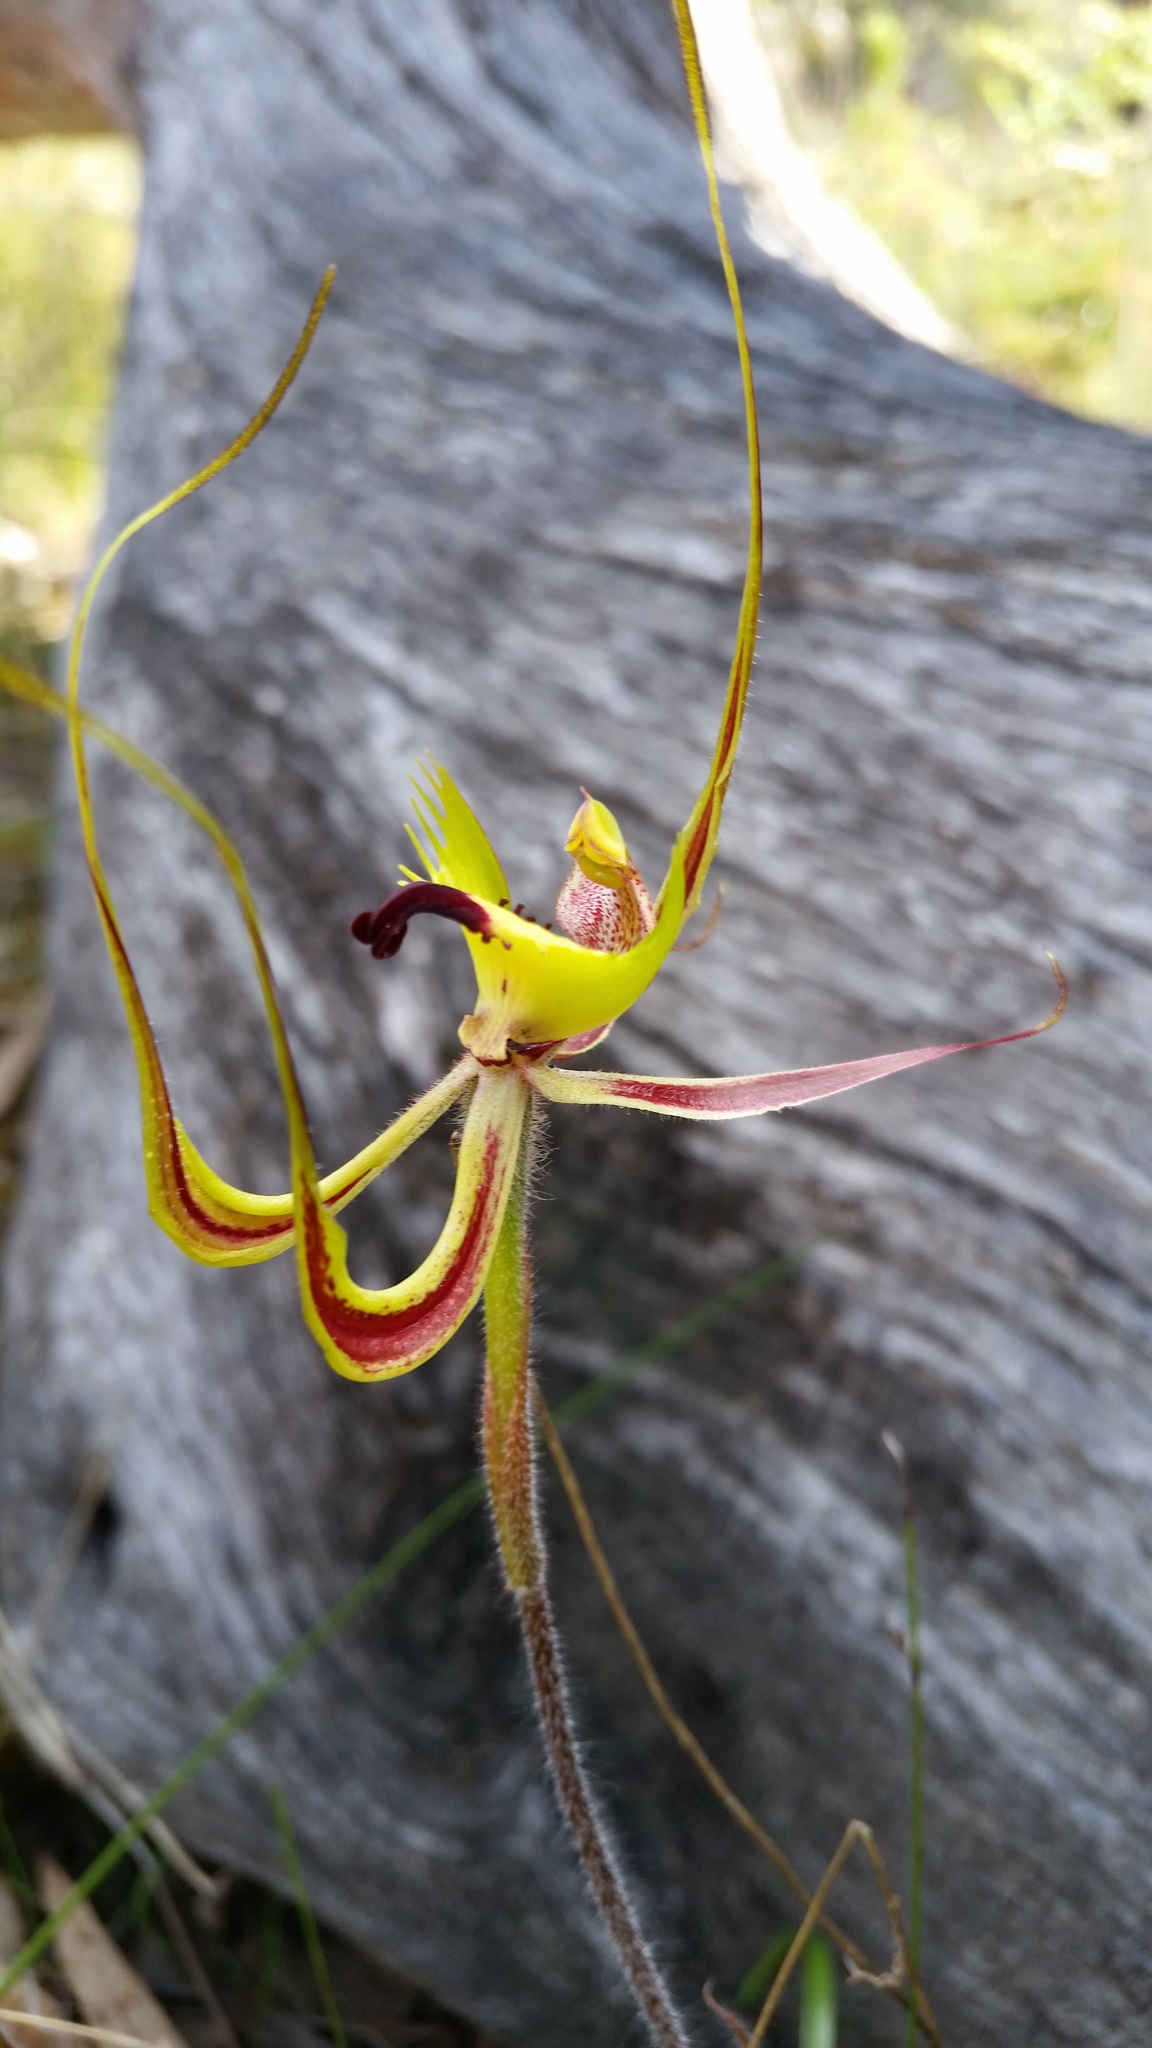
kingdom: Plantae
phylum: Tracheophyta
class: Liliopsida
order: Asparagales
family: Orchidaceae
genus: Caladenia
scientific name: Caladenia falcata
